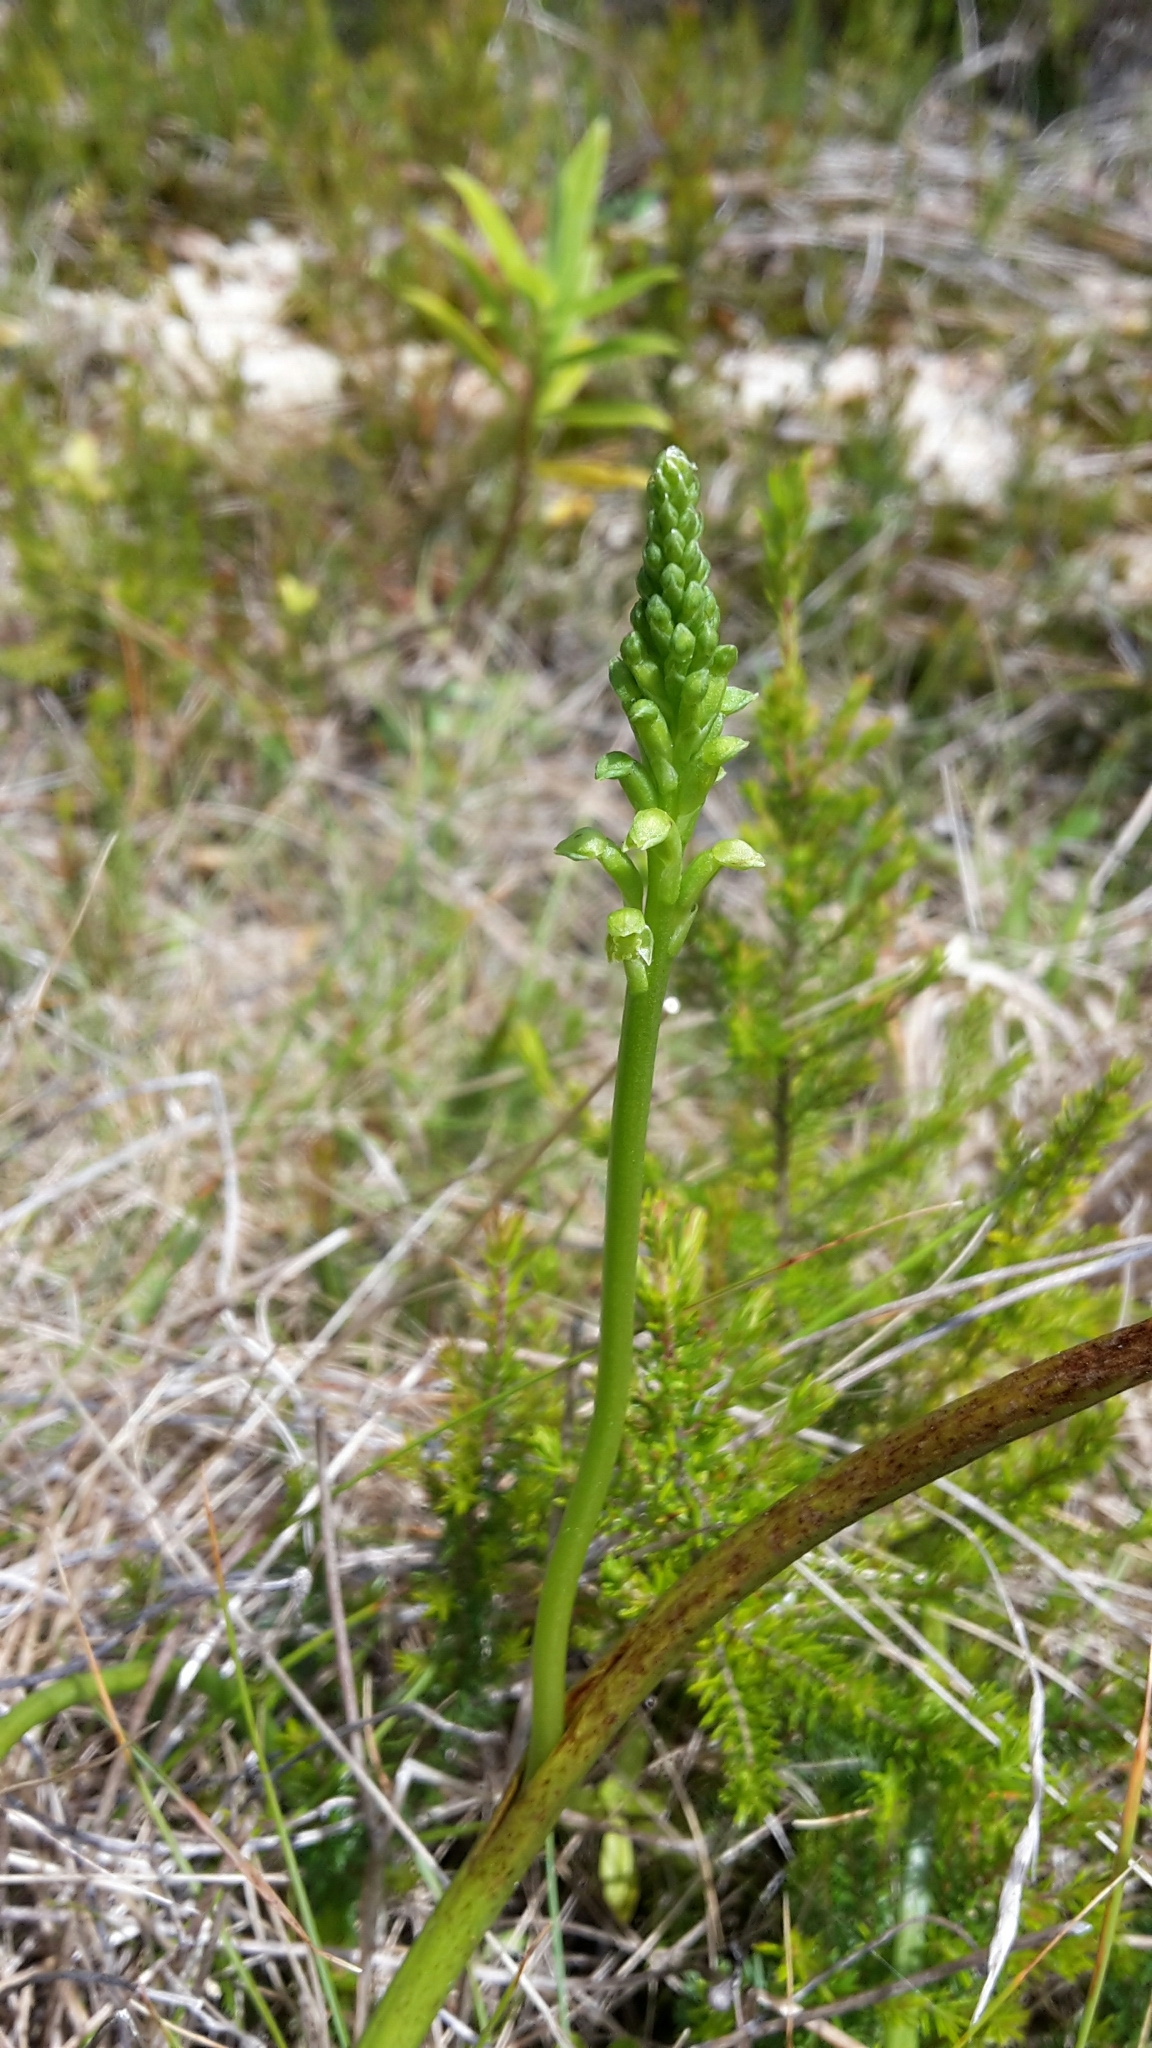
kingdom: Plantae
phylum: Tracheophyta
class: Liliopsida
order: Asparagales
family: Orchidaceae
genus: Microtis
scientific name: Microtis unifolia
